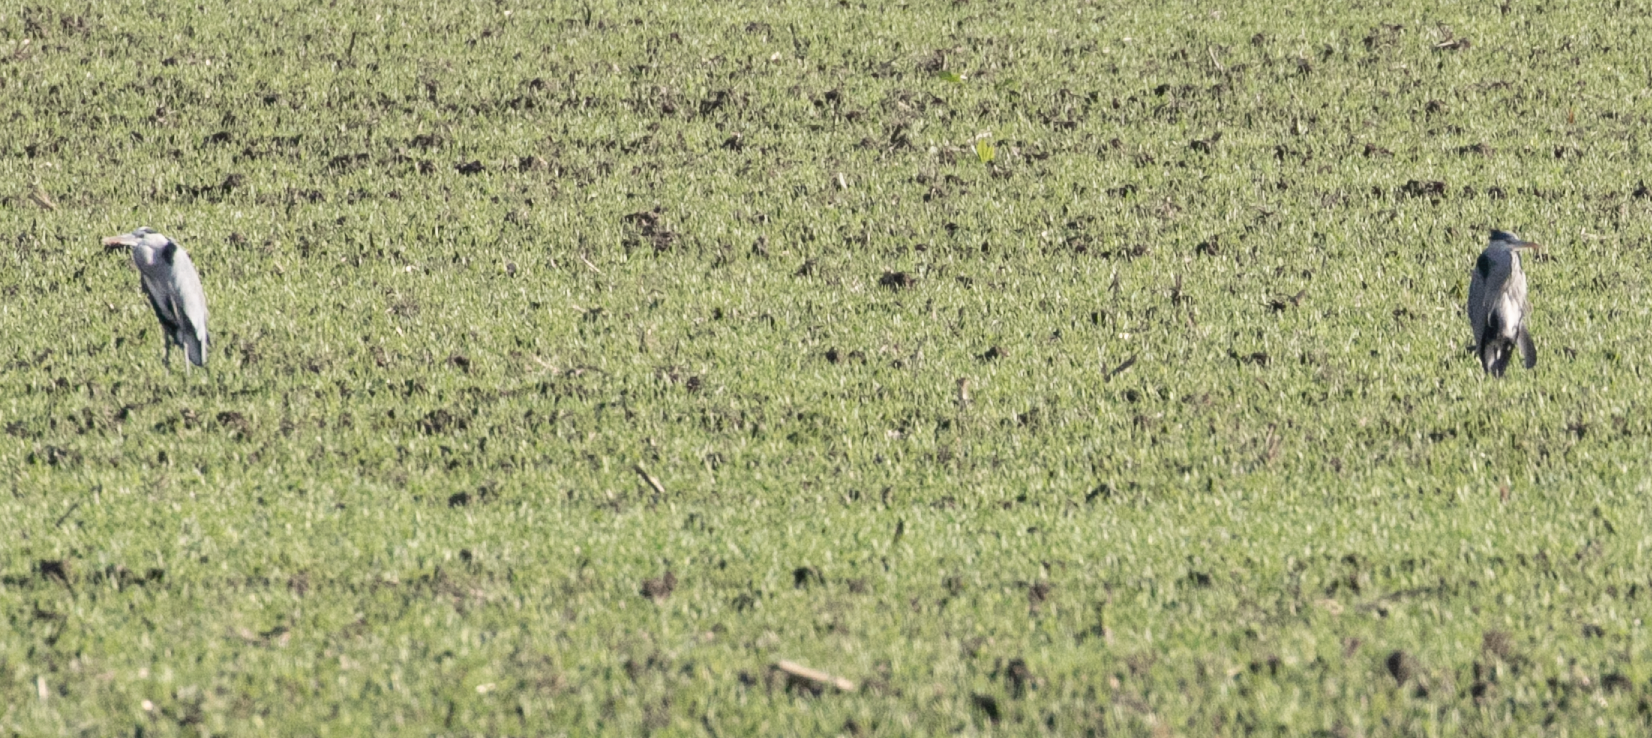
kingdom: Animalia
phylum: Chordata
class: Aves
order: Pelecaniformes
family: Ardeidae
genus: Ardea
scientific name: Ardea cinerea
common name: Grey heron
